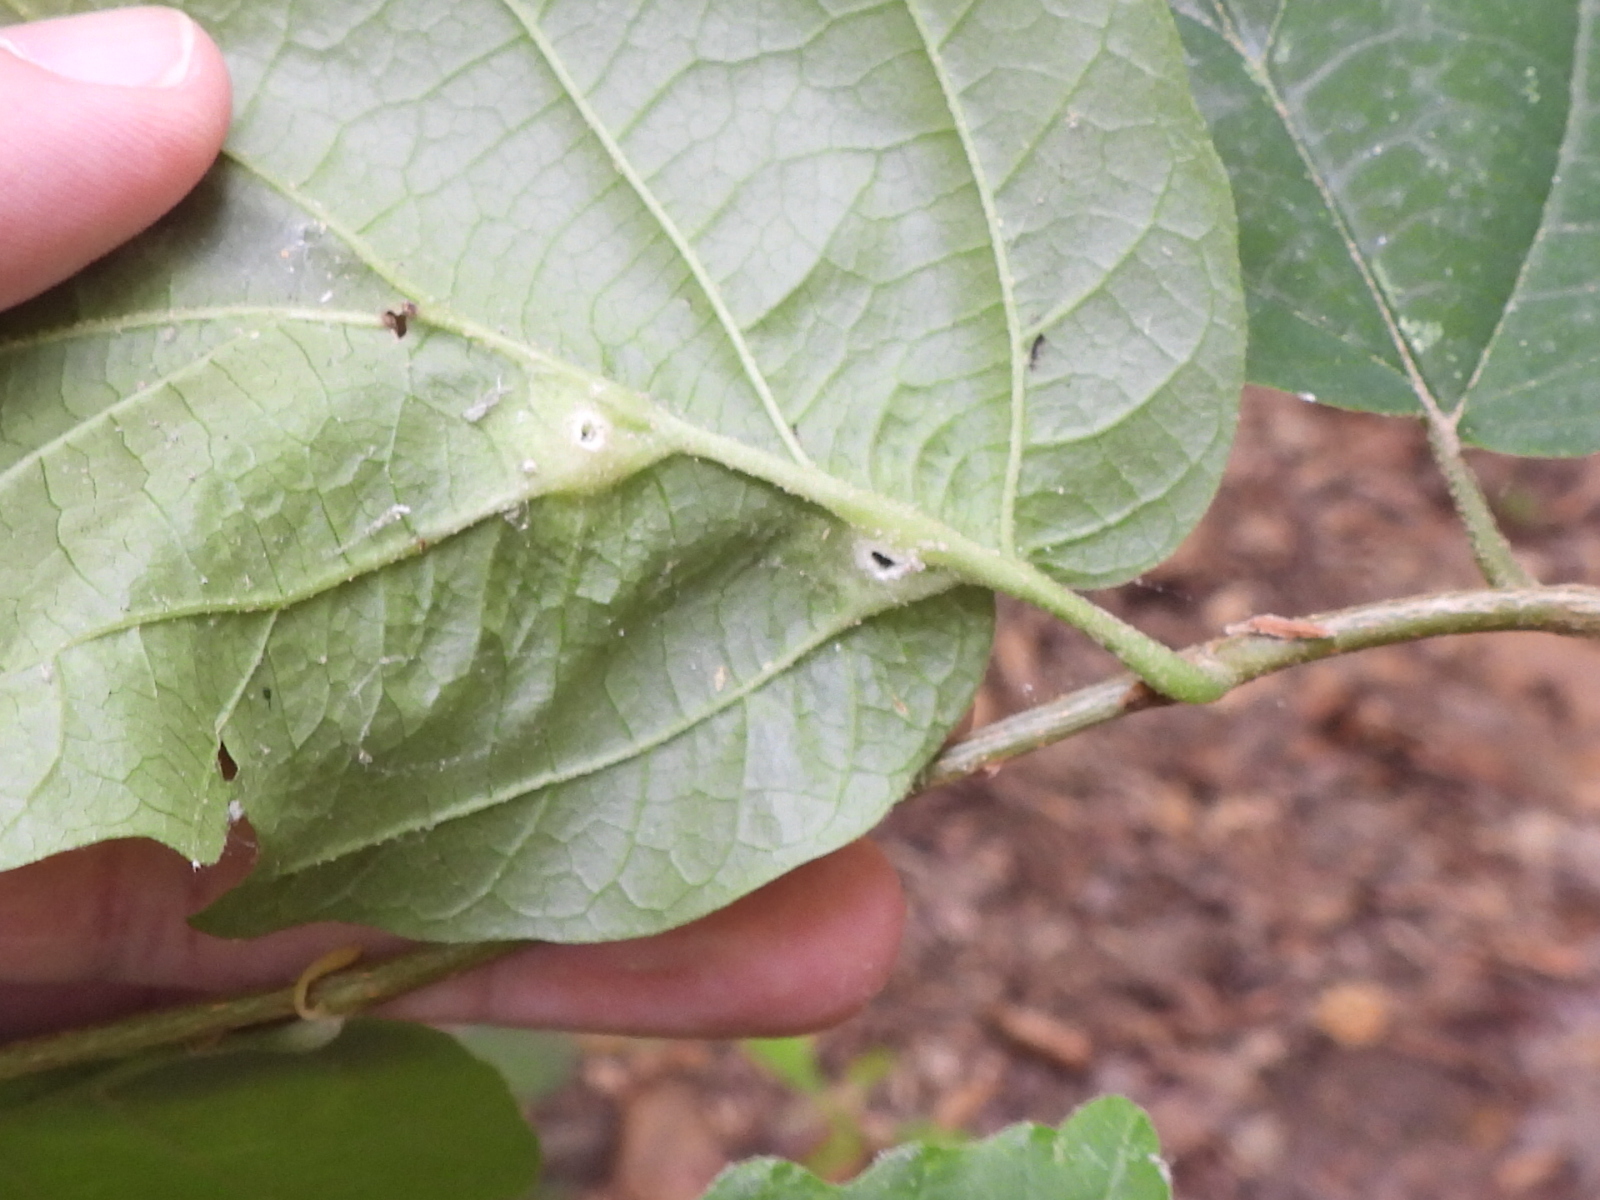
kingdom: Animalia
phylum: Arthropoda
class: Insecta
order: Hemiptera
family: Aphididae
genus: Hormaphis
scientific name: Hormaphis hamamelidis
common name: Witch-hazel cone gall aphid
